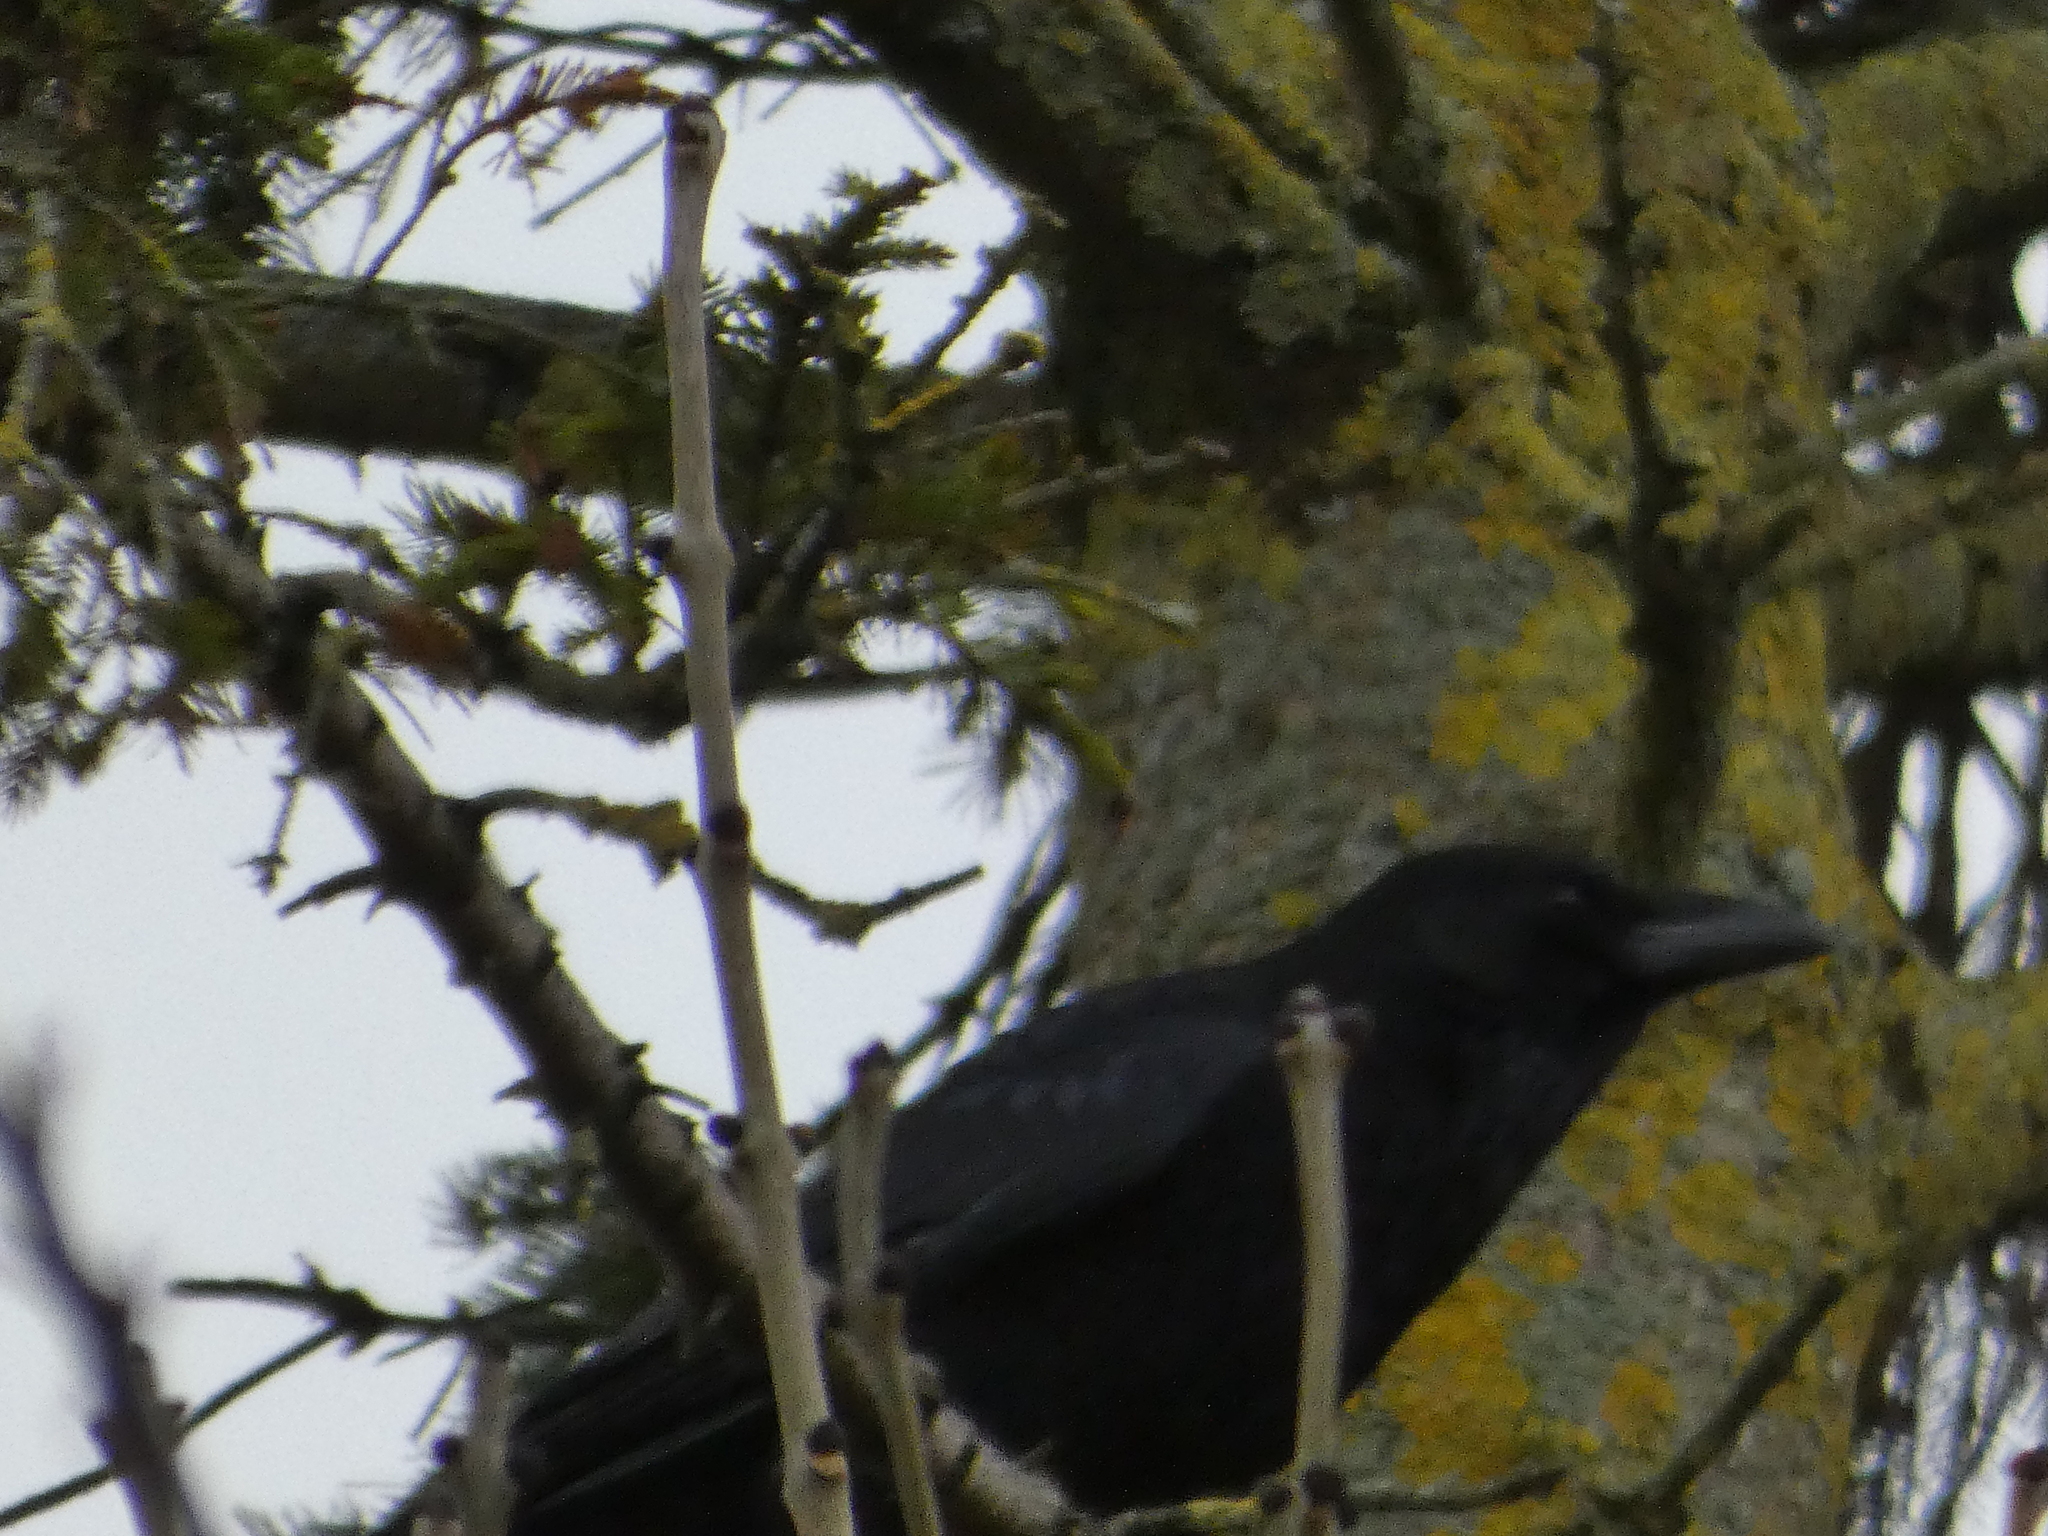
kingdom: Animalia
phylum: Chordata
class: Aves
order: Passeriformes
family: Corvidae
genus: Corvus
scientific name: Corvus corone
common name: Carrion crow
